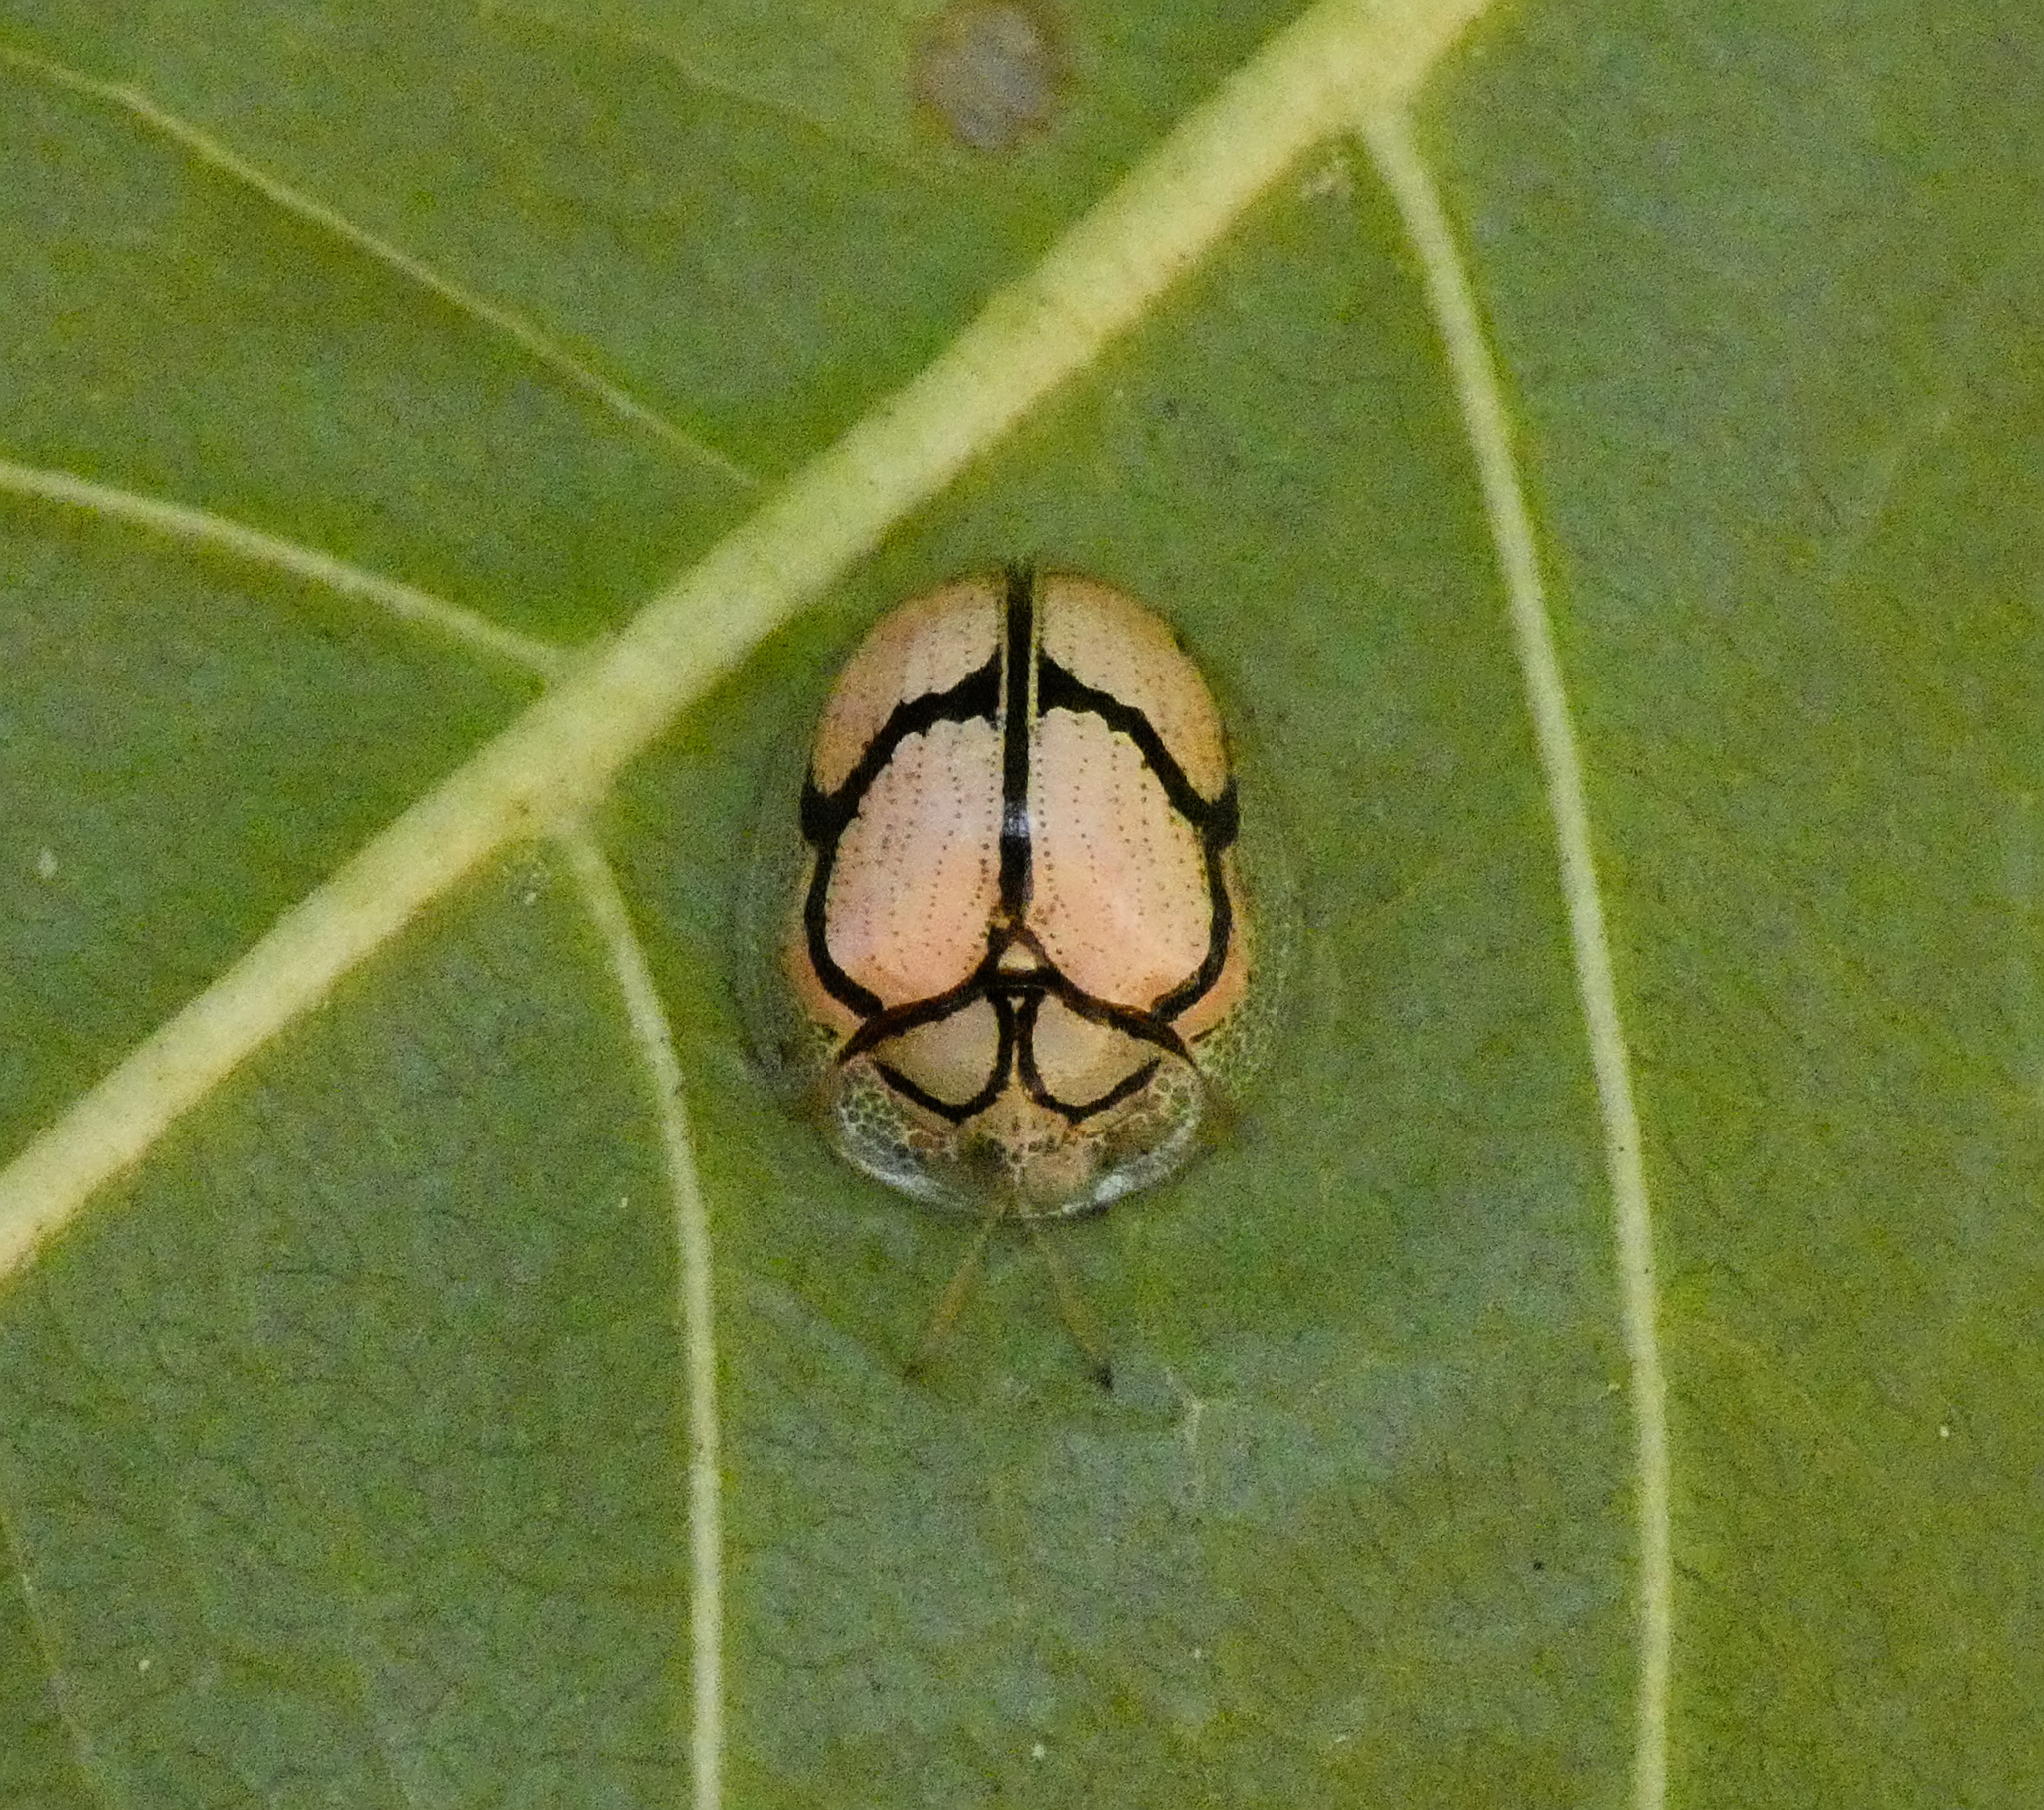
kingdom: Animalia
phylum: Arthropoda
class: Insecta
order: Coleoptera
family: Chrysomelidae
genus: Chiridopsis
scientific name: Chiridopsis nigrosepta
